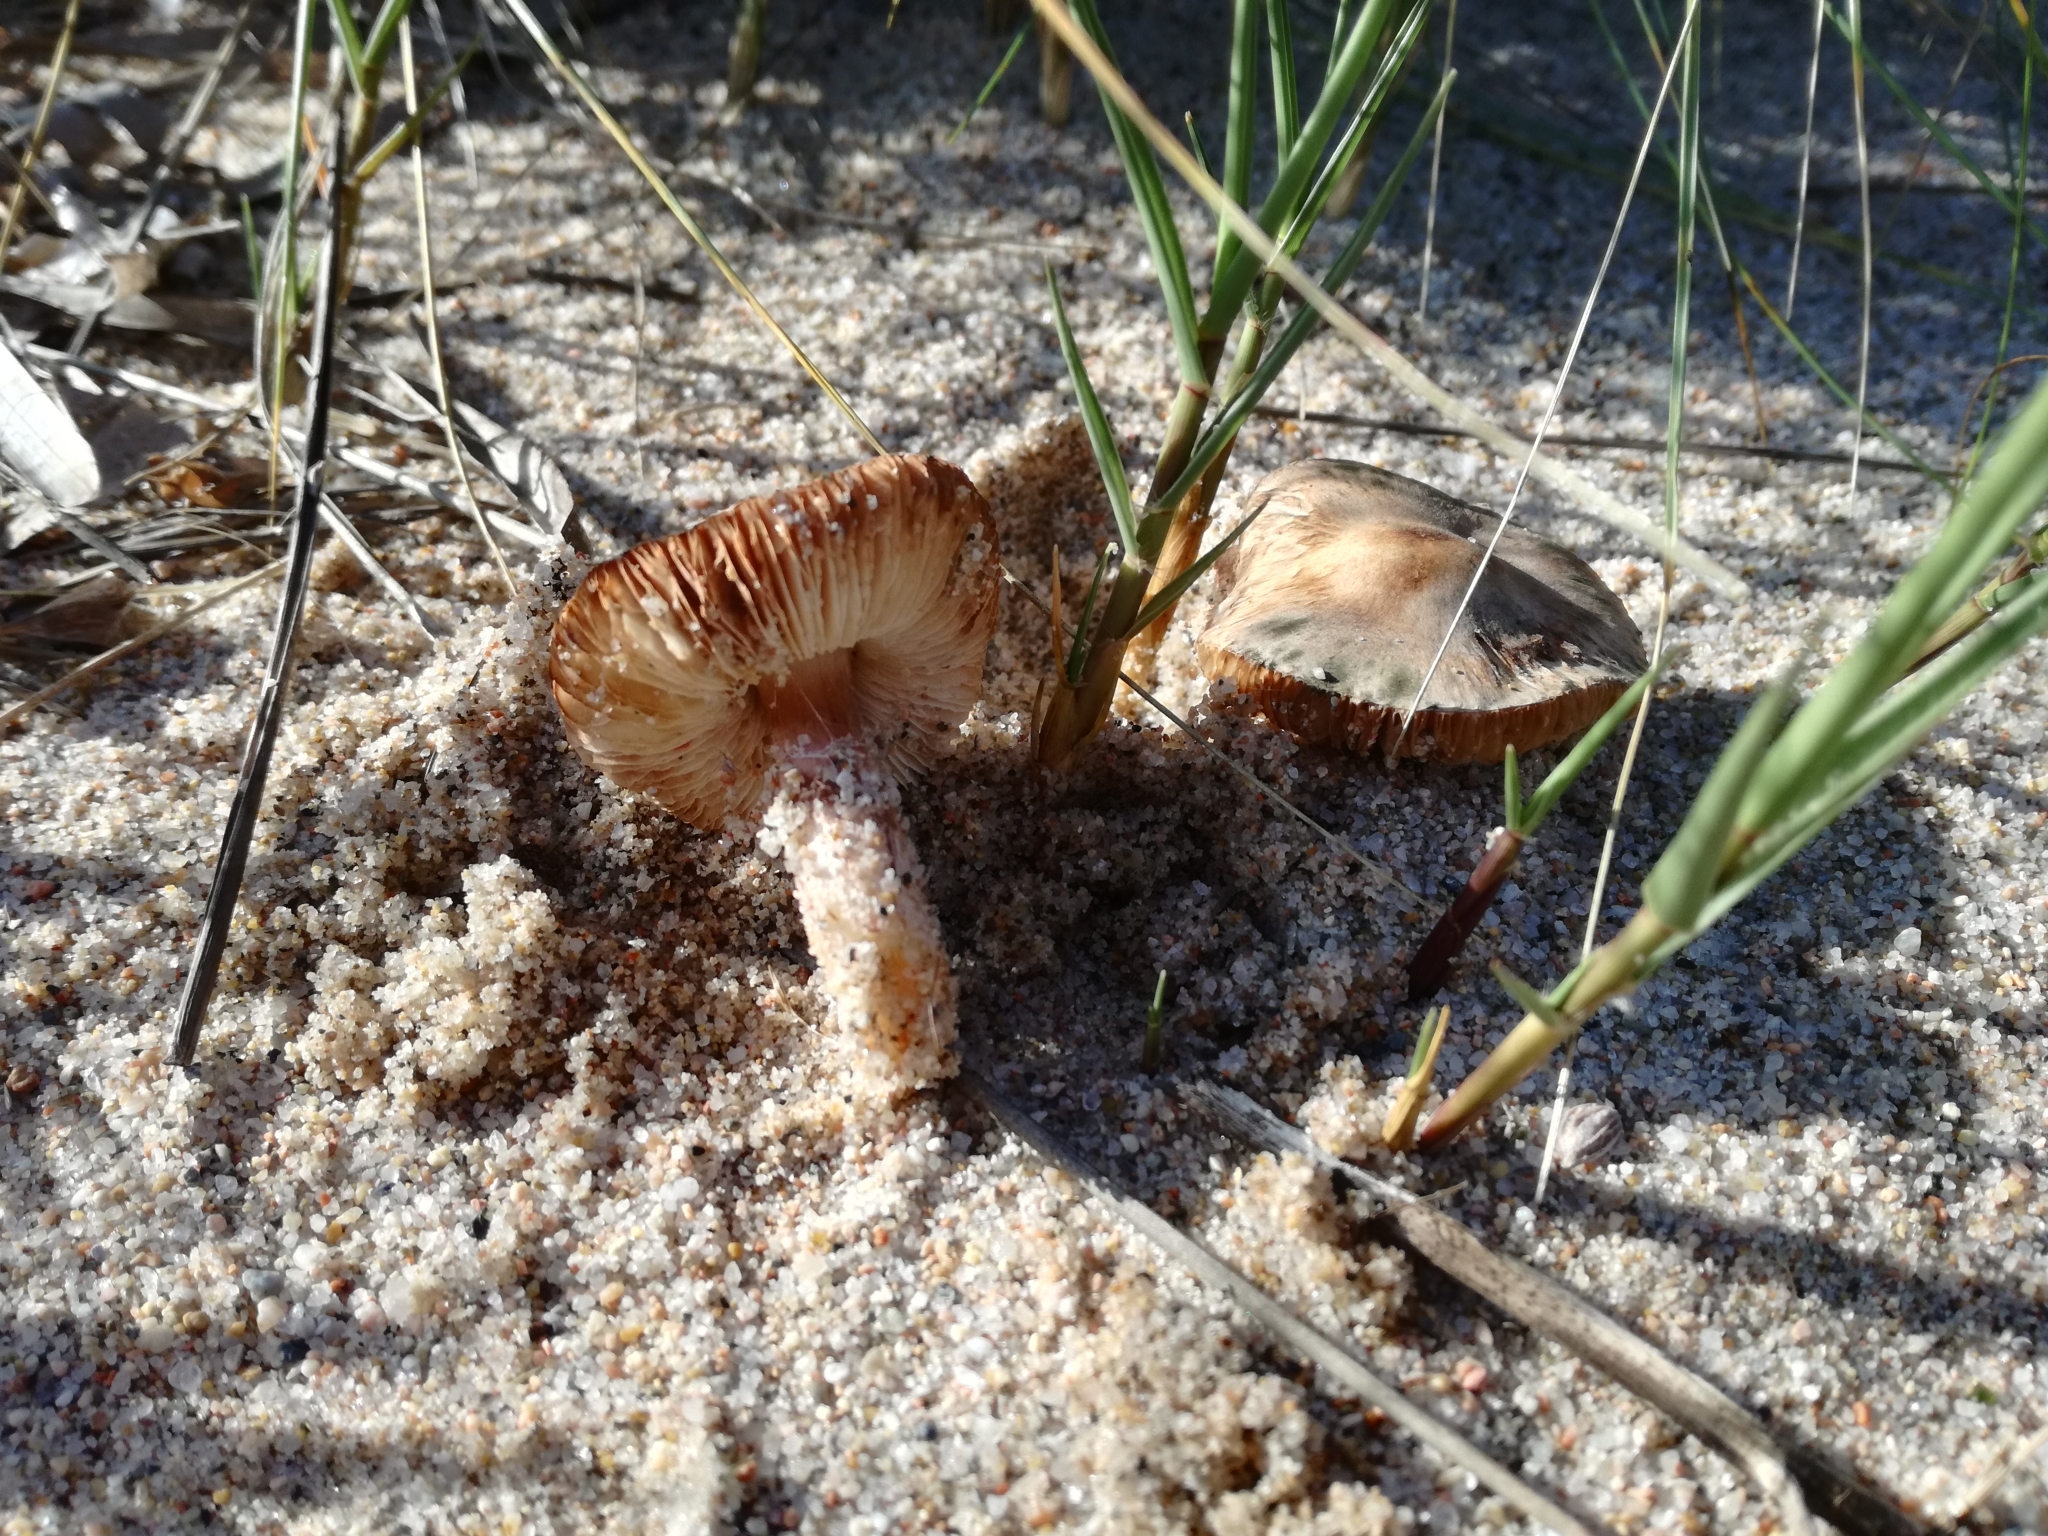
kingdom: Fungi
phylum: Basidiomycota
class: Agaricomycetes
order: Agaricales
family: Agaricaceae
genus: Lepiota
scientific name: Lepiota brunneolilacea
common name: Star dapperling
